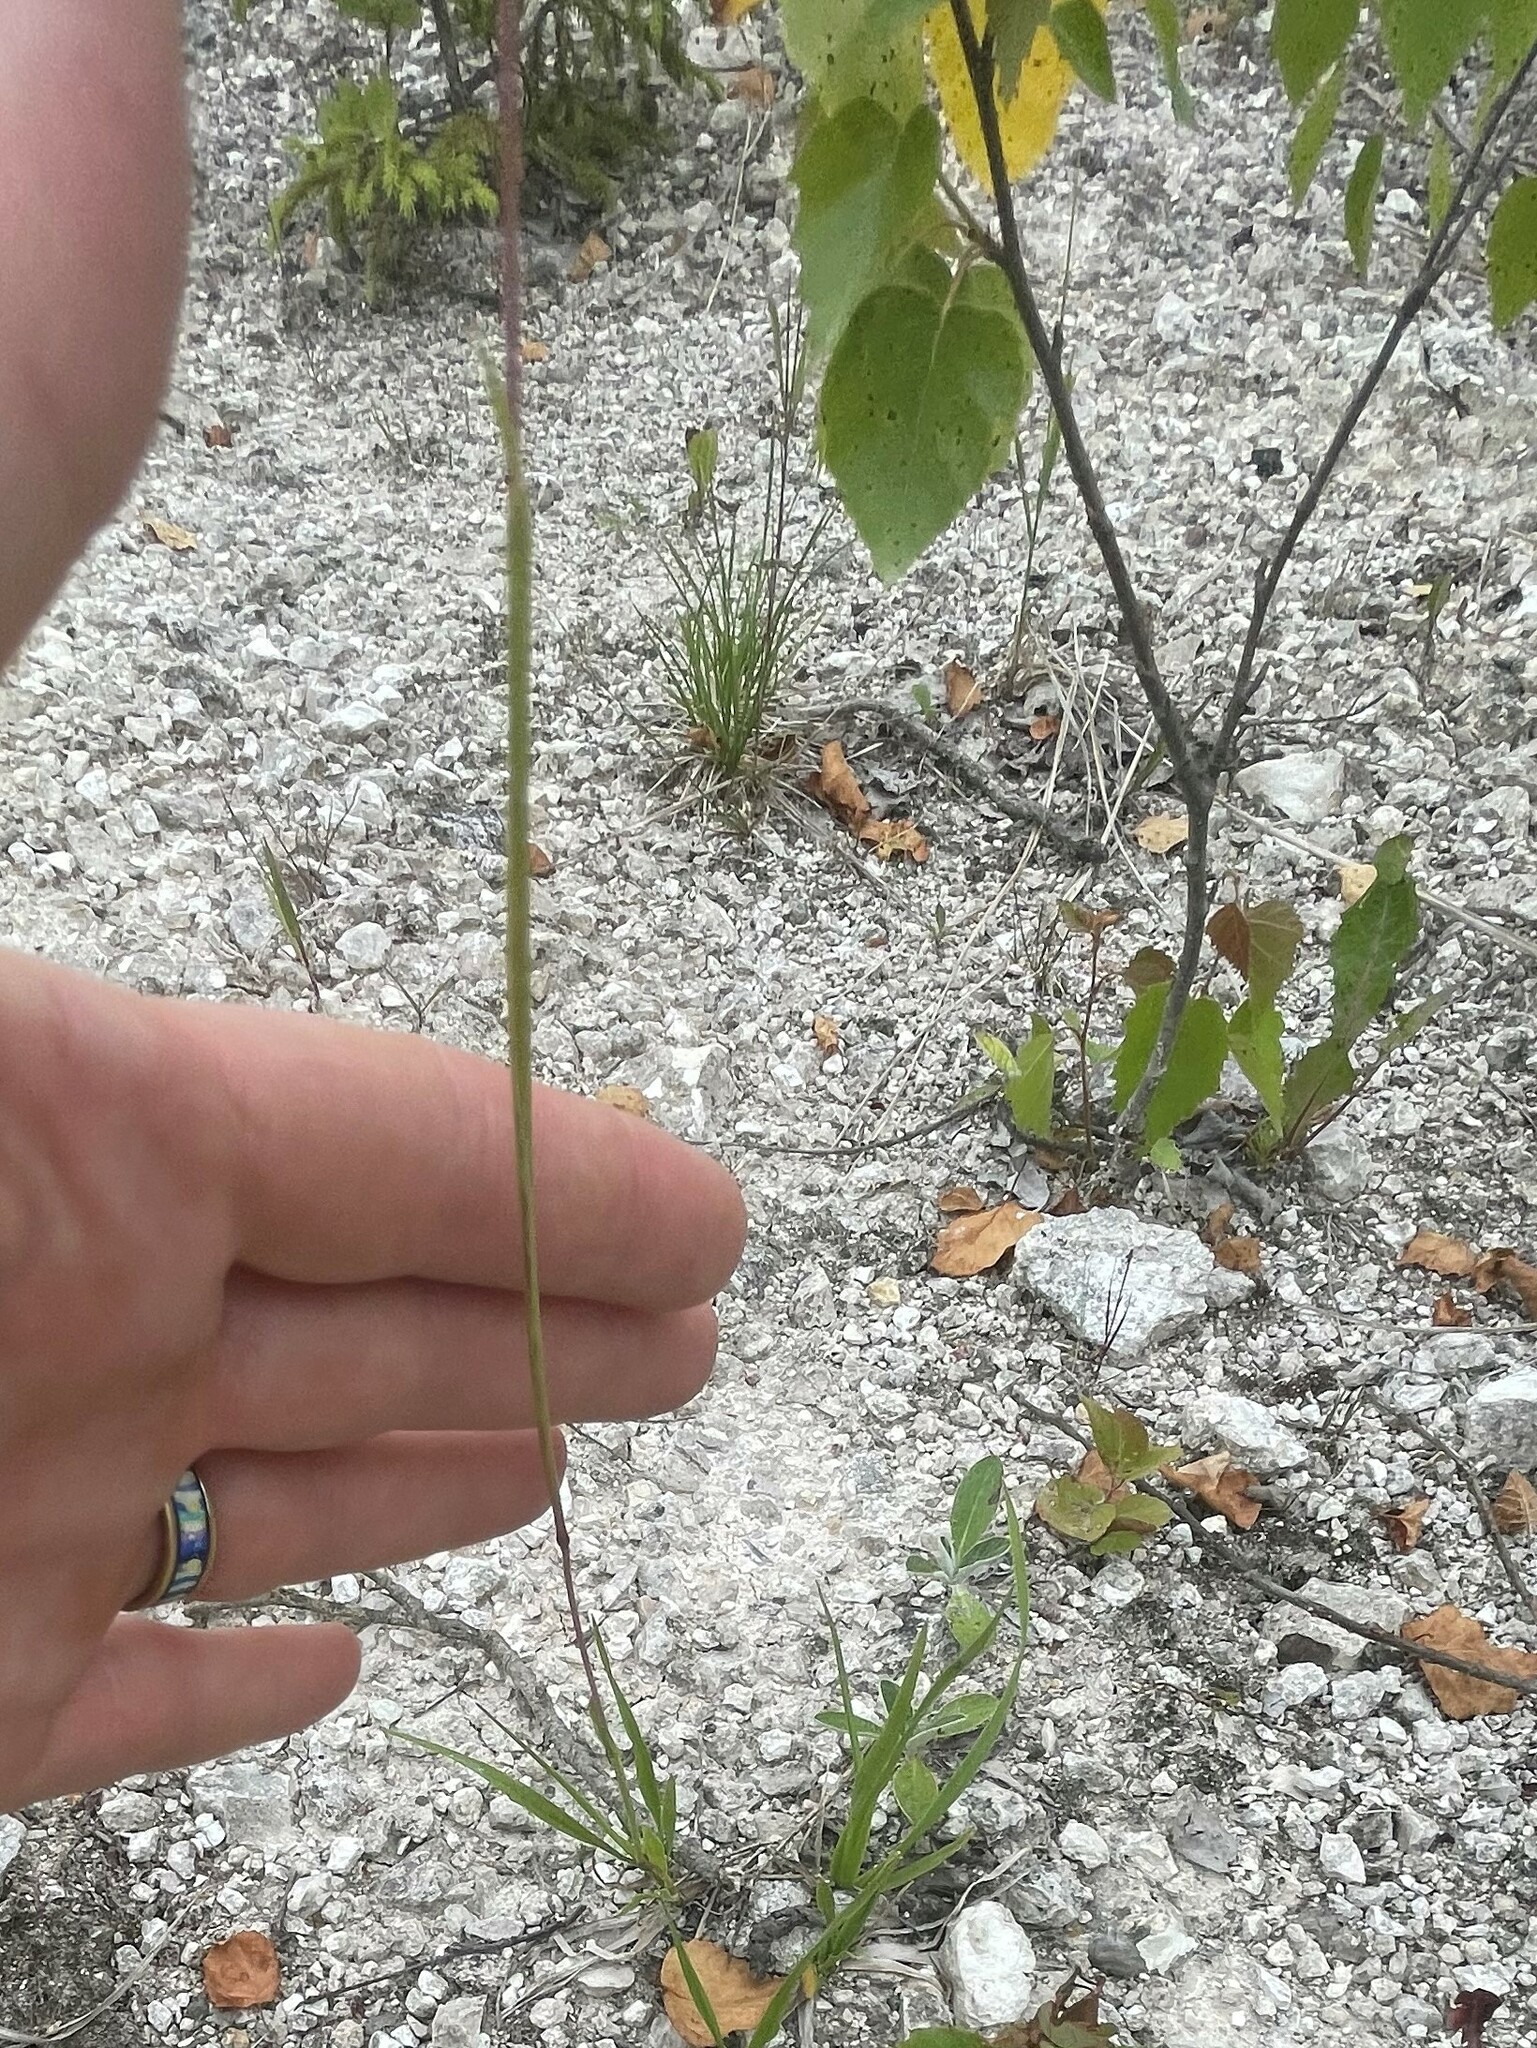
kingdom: Plantae
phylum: Tracheophyta
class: Liliopsida
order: Poales
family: Poaceae
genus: Briza
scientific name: Briza media
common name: Quaking grass
